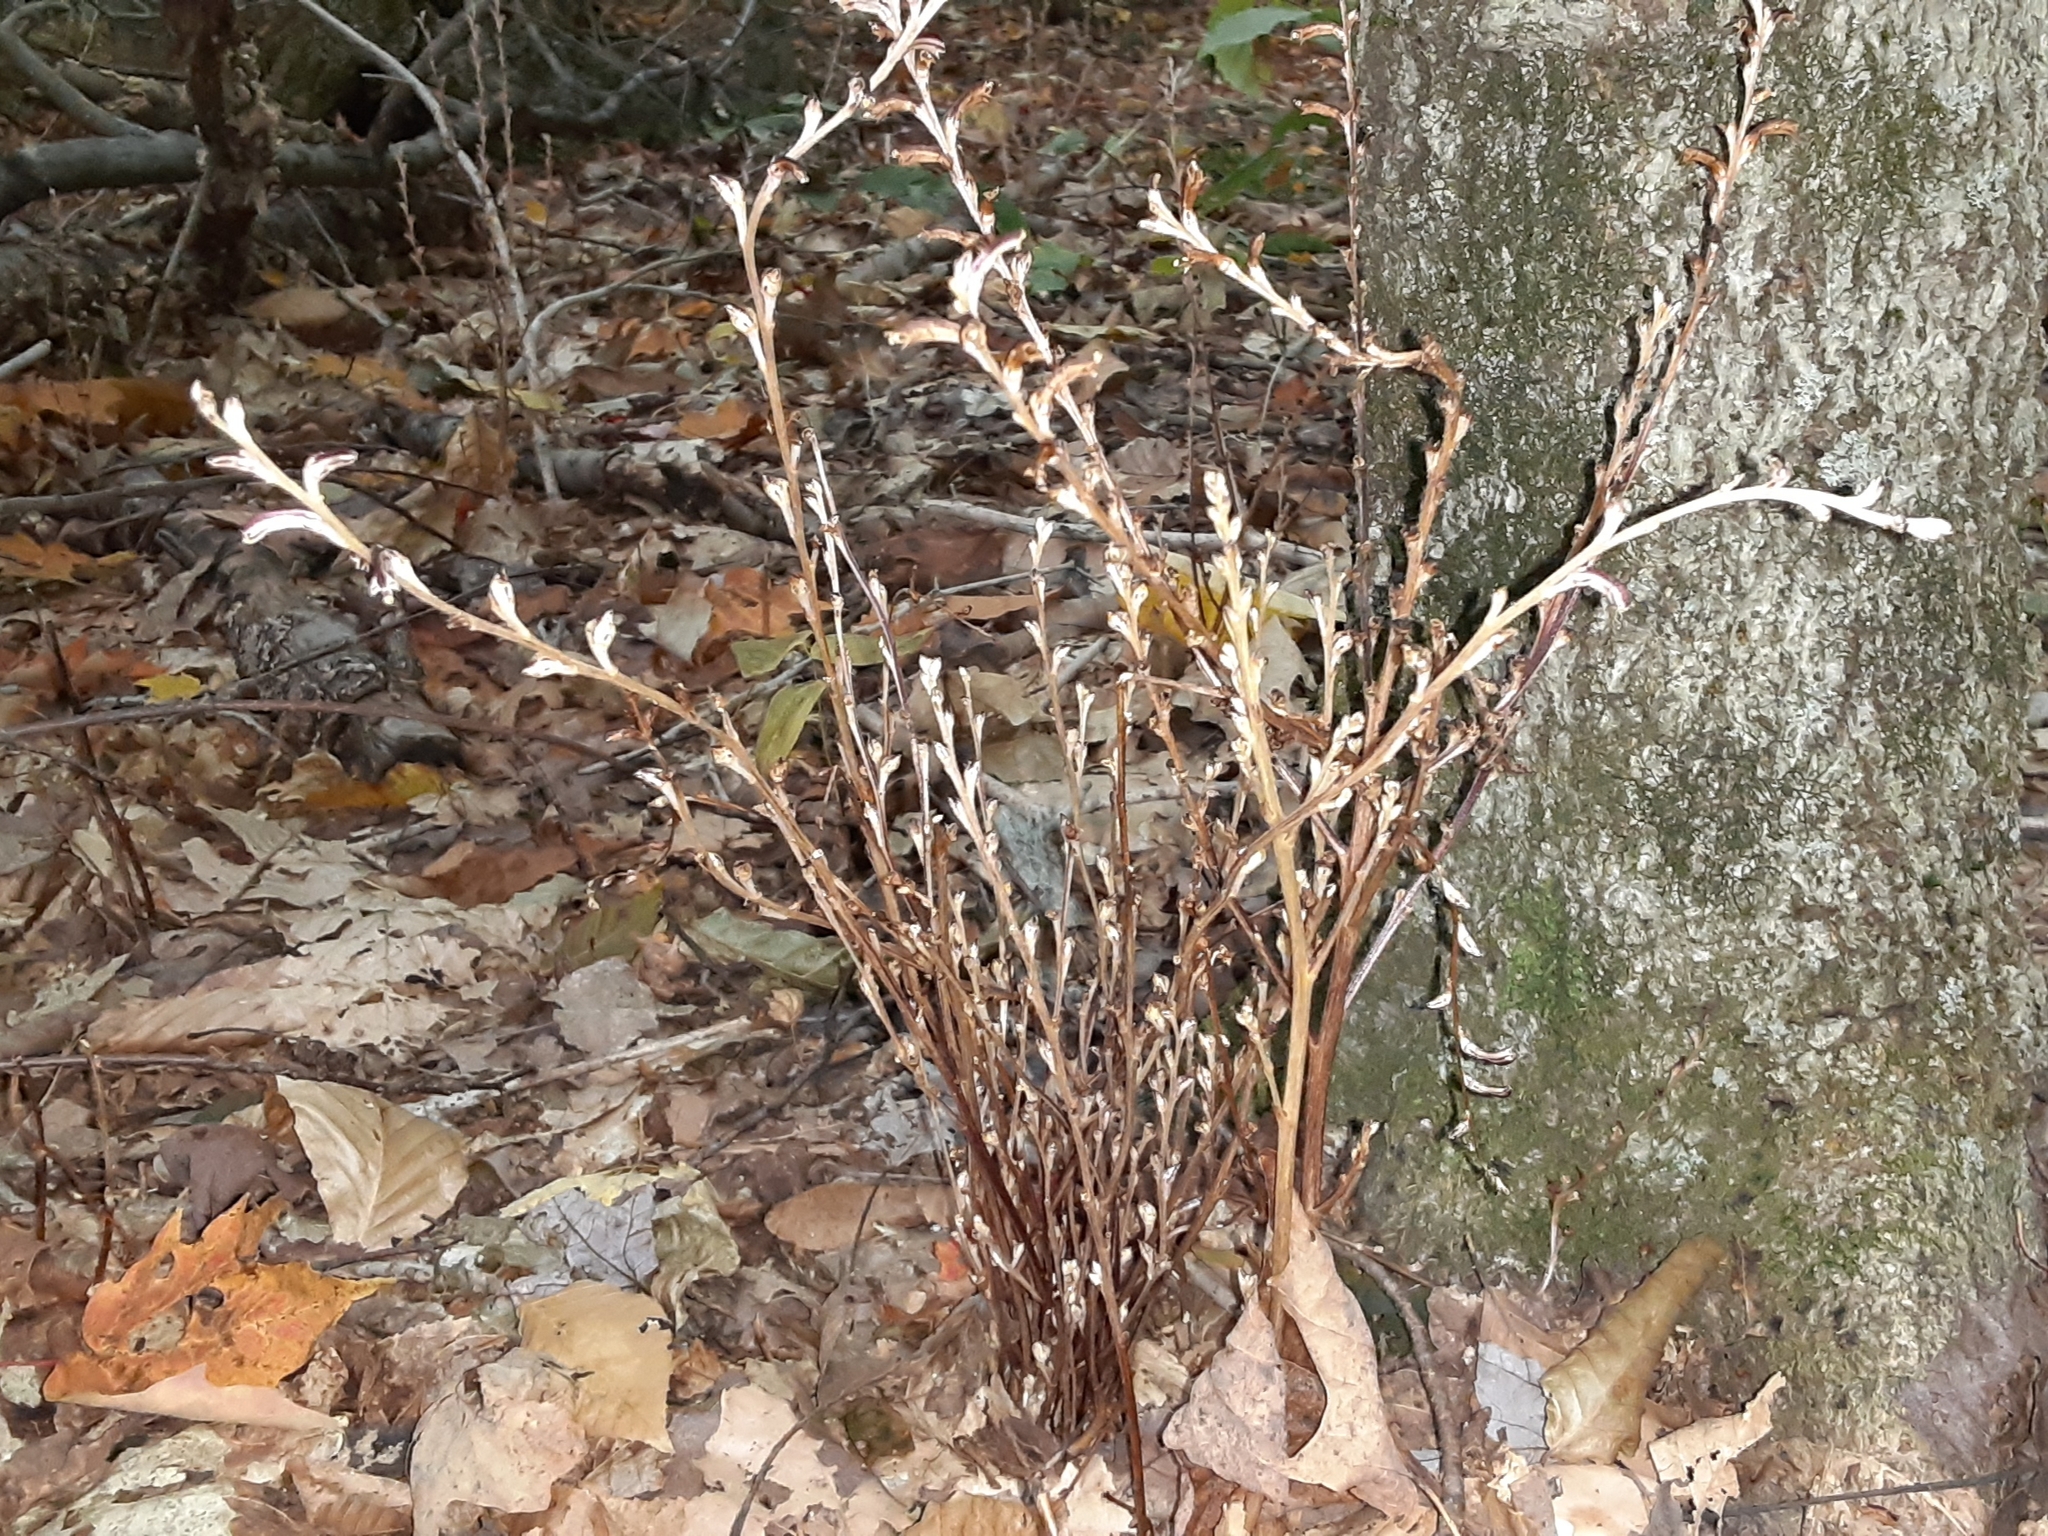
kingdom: Plantae
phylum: Tracheophyta
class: Magnoliopsida
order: Lamiales
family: Orobanchaceae
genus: Epifagus
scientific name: Epifagus virginiana
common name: Beechdrops
